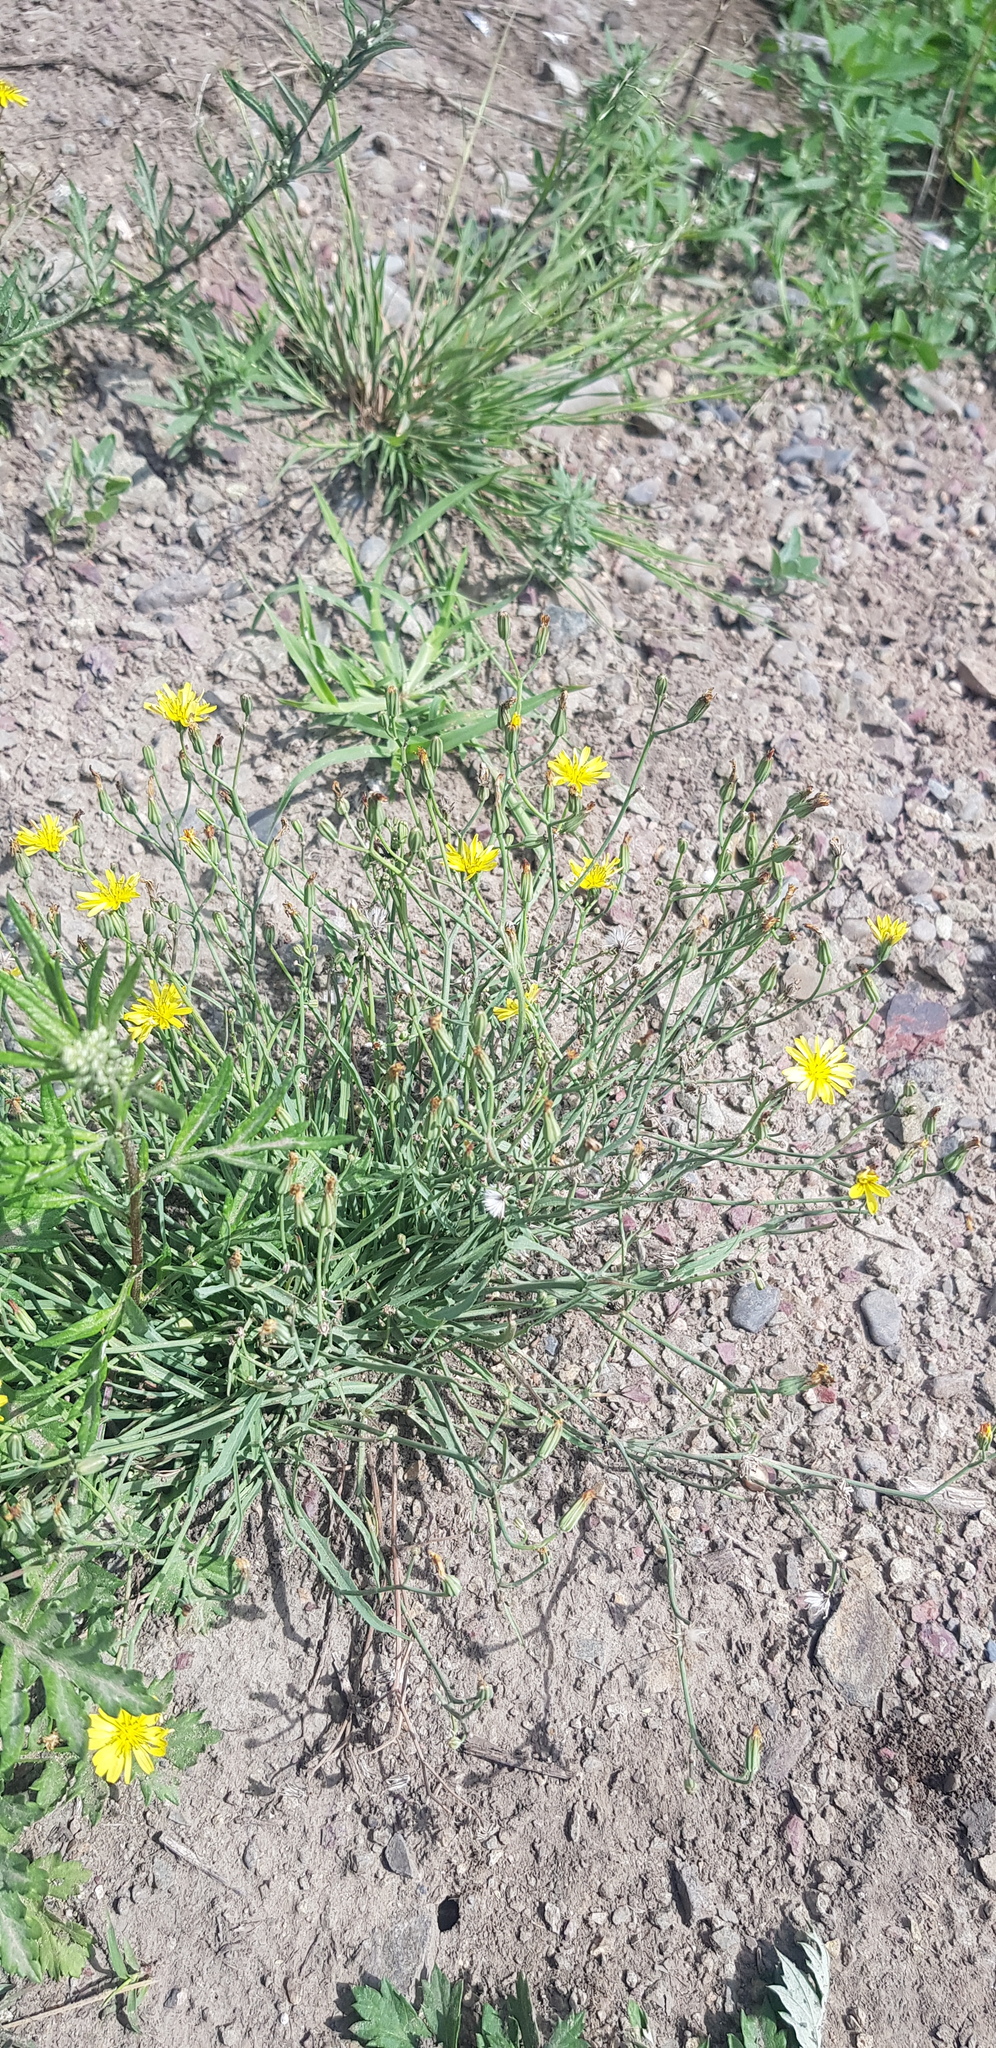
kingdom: Plantae
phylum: Tracheophyta
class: Magnoliopsida
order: Asterales
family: Asteraceae
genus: Crepidiastrum
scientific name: Crepidiastrum tenuifolium
